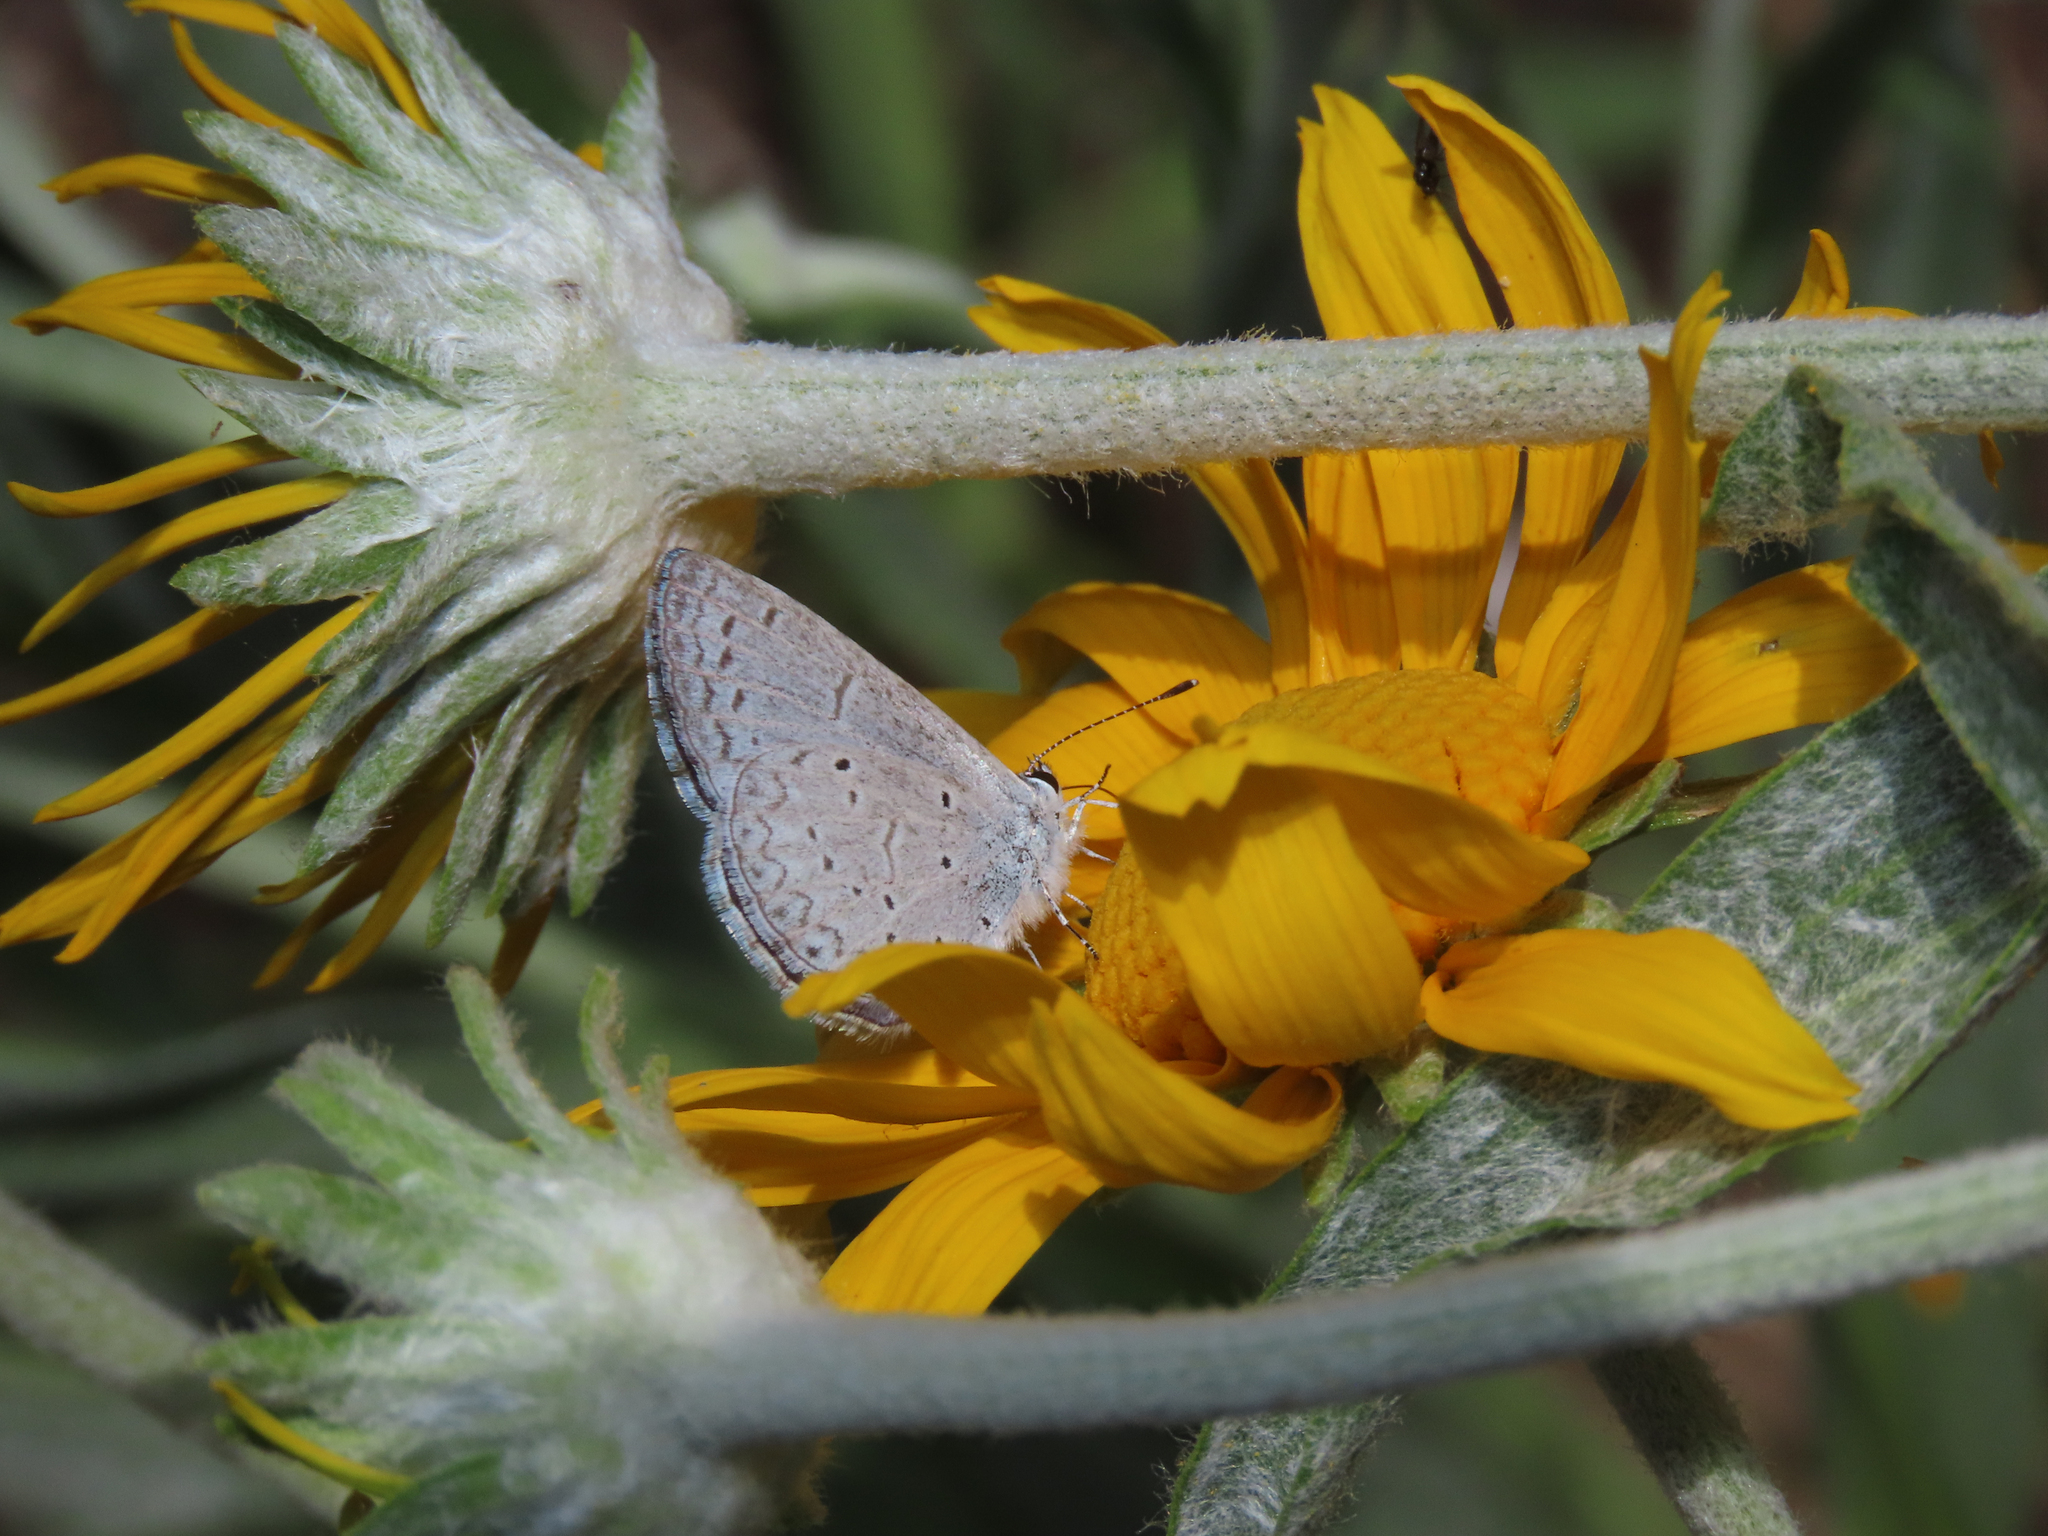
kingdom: Animalia
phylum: Arthropoda
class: Insecta
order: Lepidoptera
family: Lycaenidae
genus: Celastrina
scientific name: Celastrina ladon
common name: Spring azure
